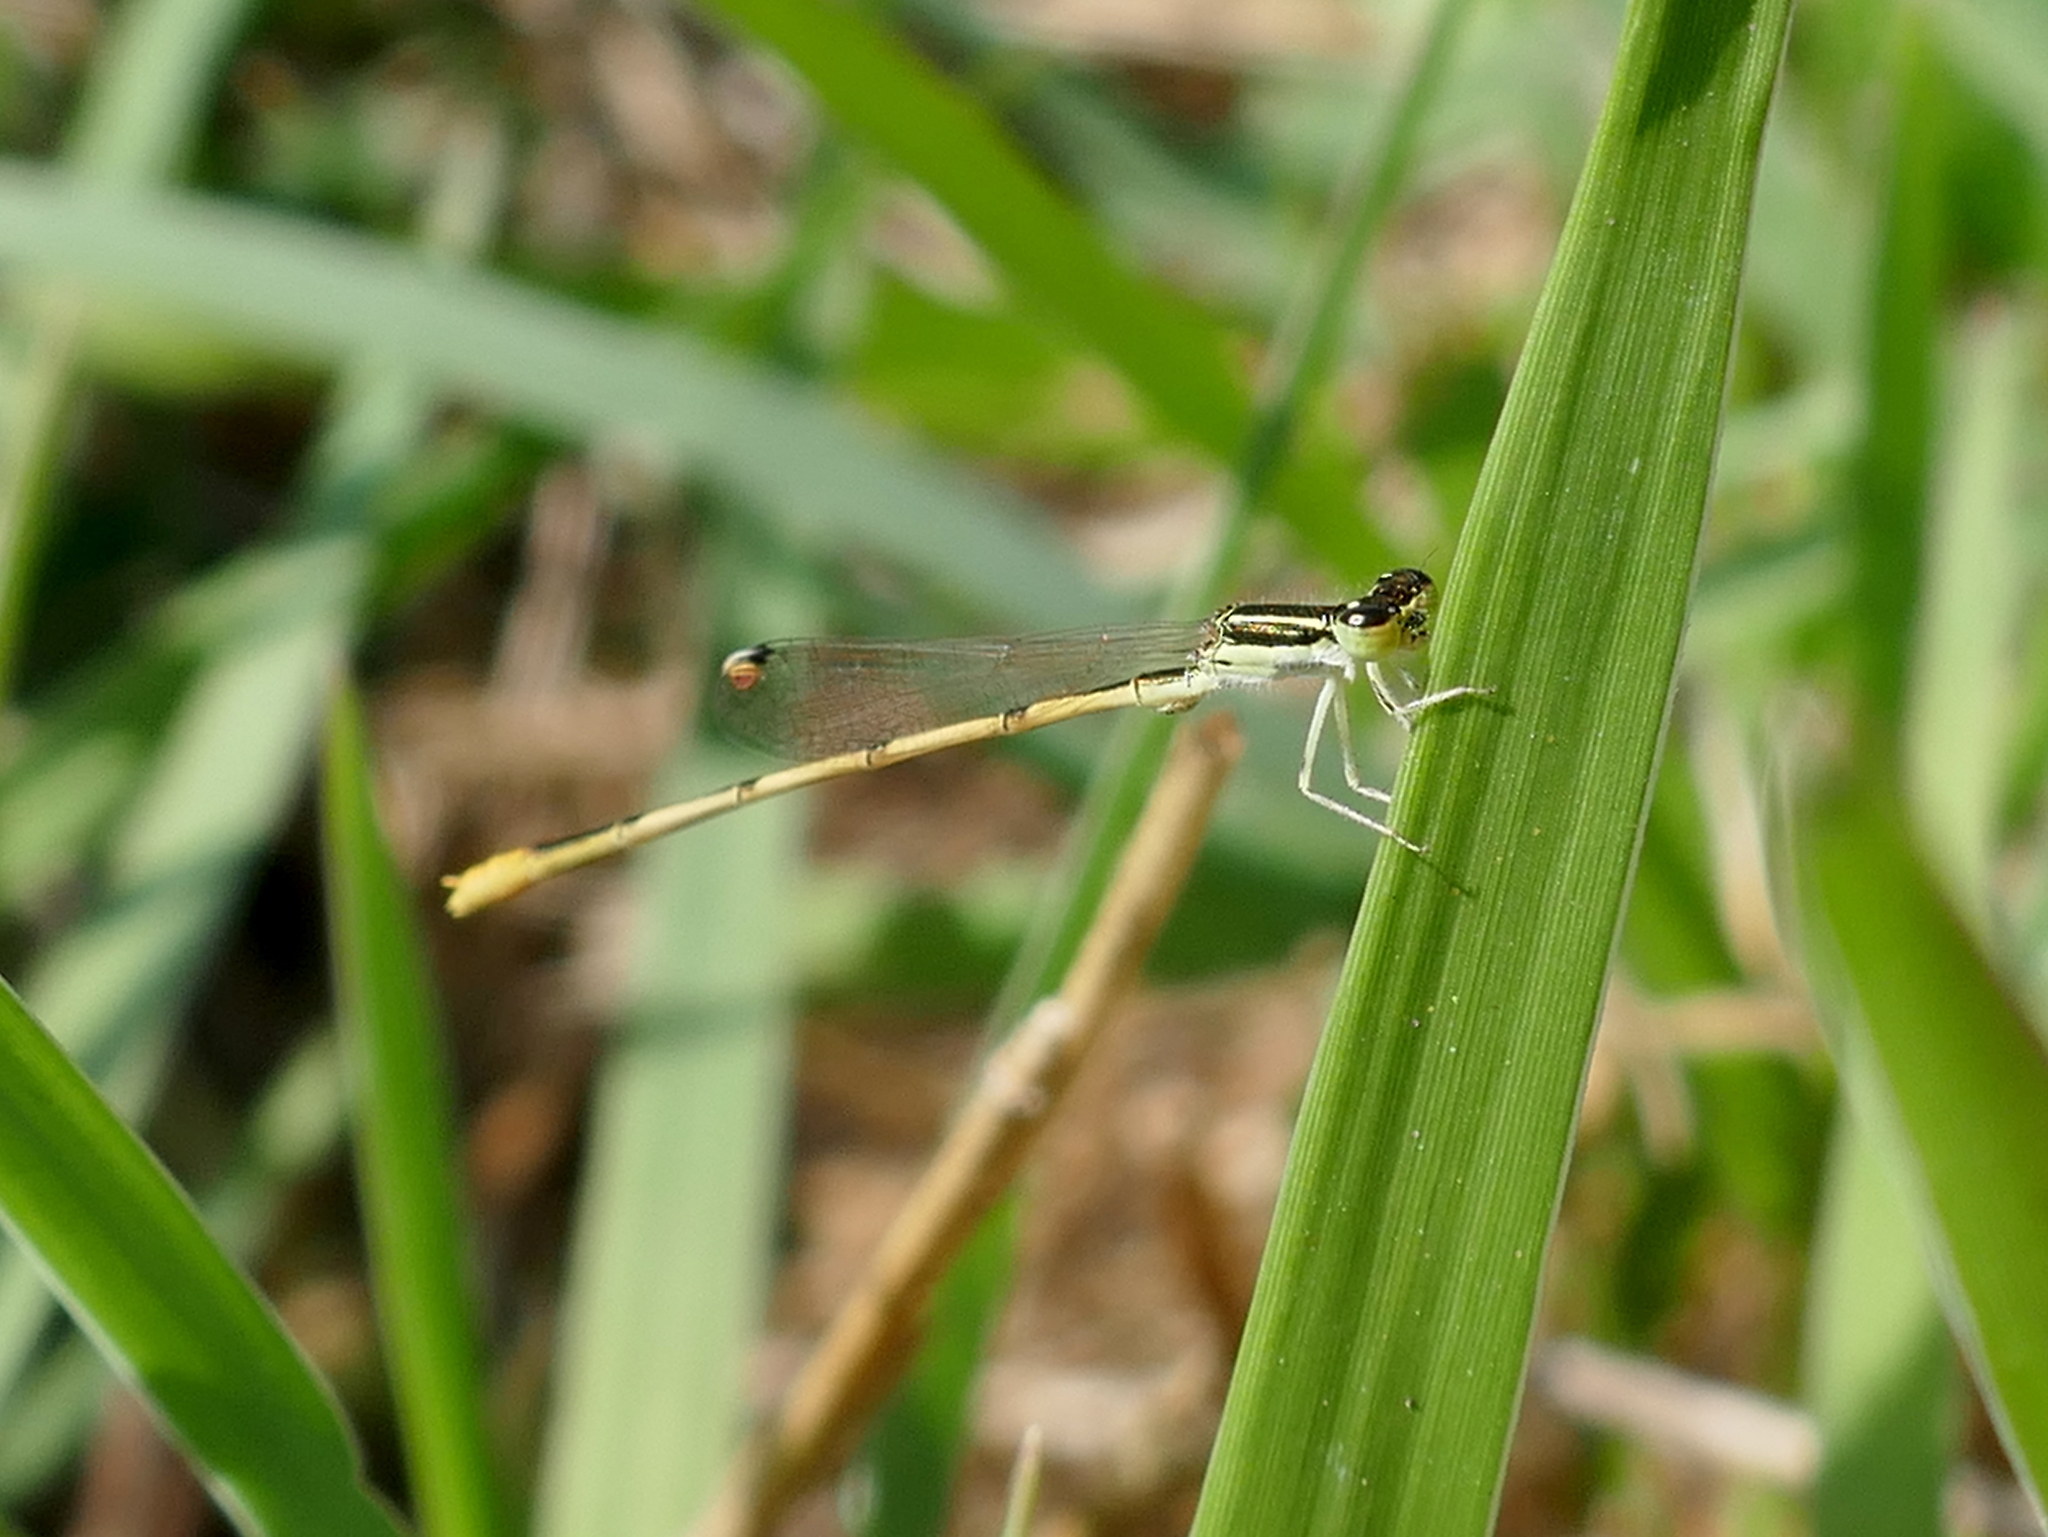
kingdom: Animalia
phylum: Arthropoda
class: Insecta
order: Odonata
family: Coenagrionidae
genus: Ischnura
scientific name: Ischnura hastata
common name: Citrine forktail
